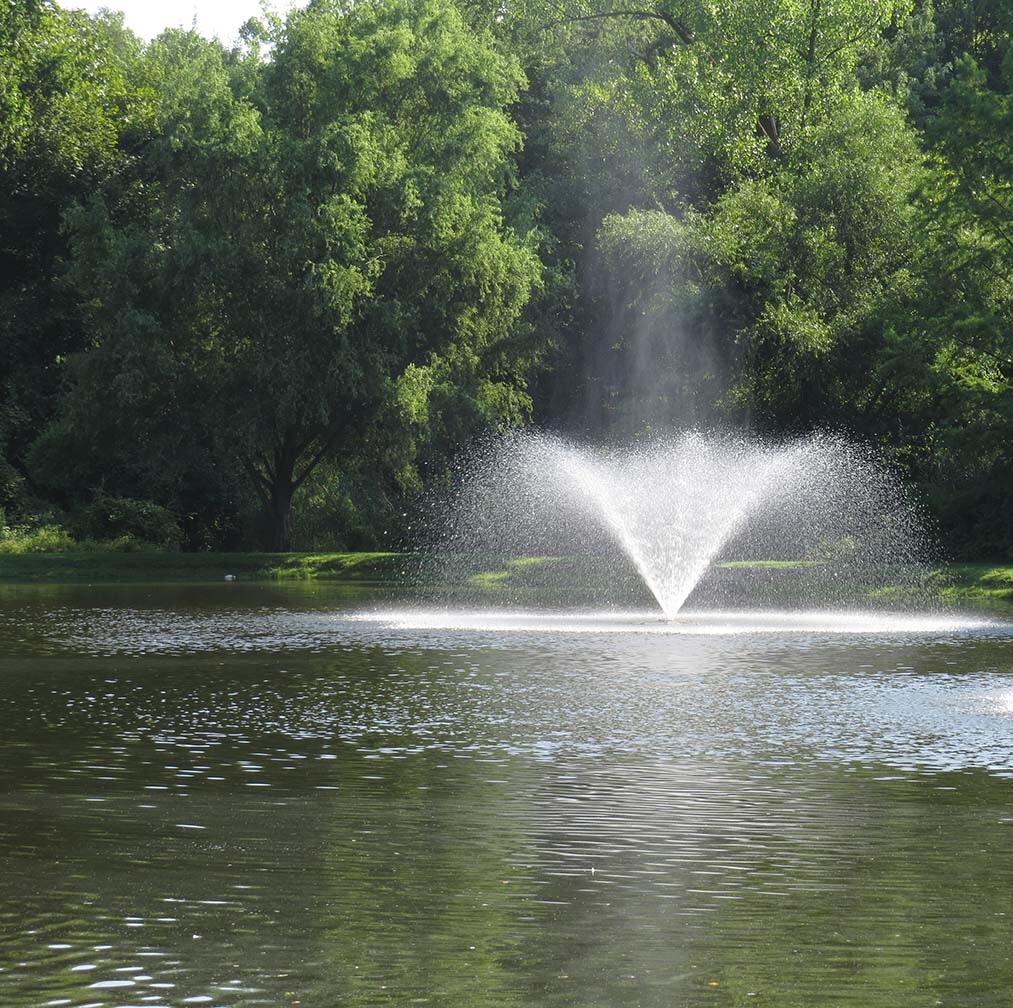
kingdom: Animalia
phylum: Chordata
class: Aves
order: Anseriformes
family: Anatidae
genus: Branta
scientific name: Branta canadensis
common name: Canada goose
